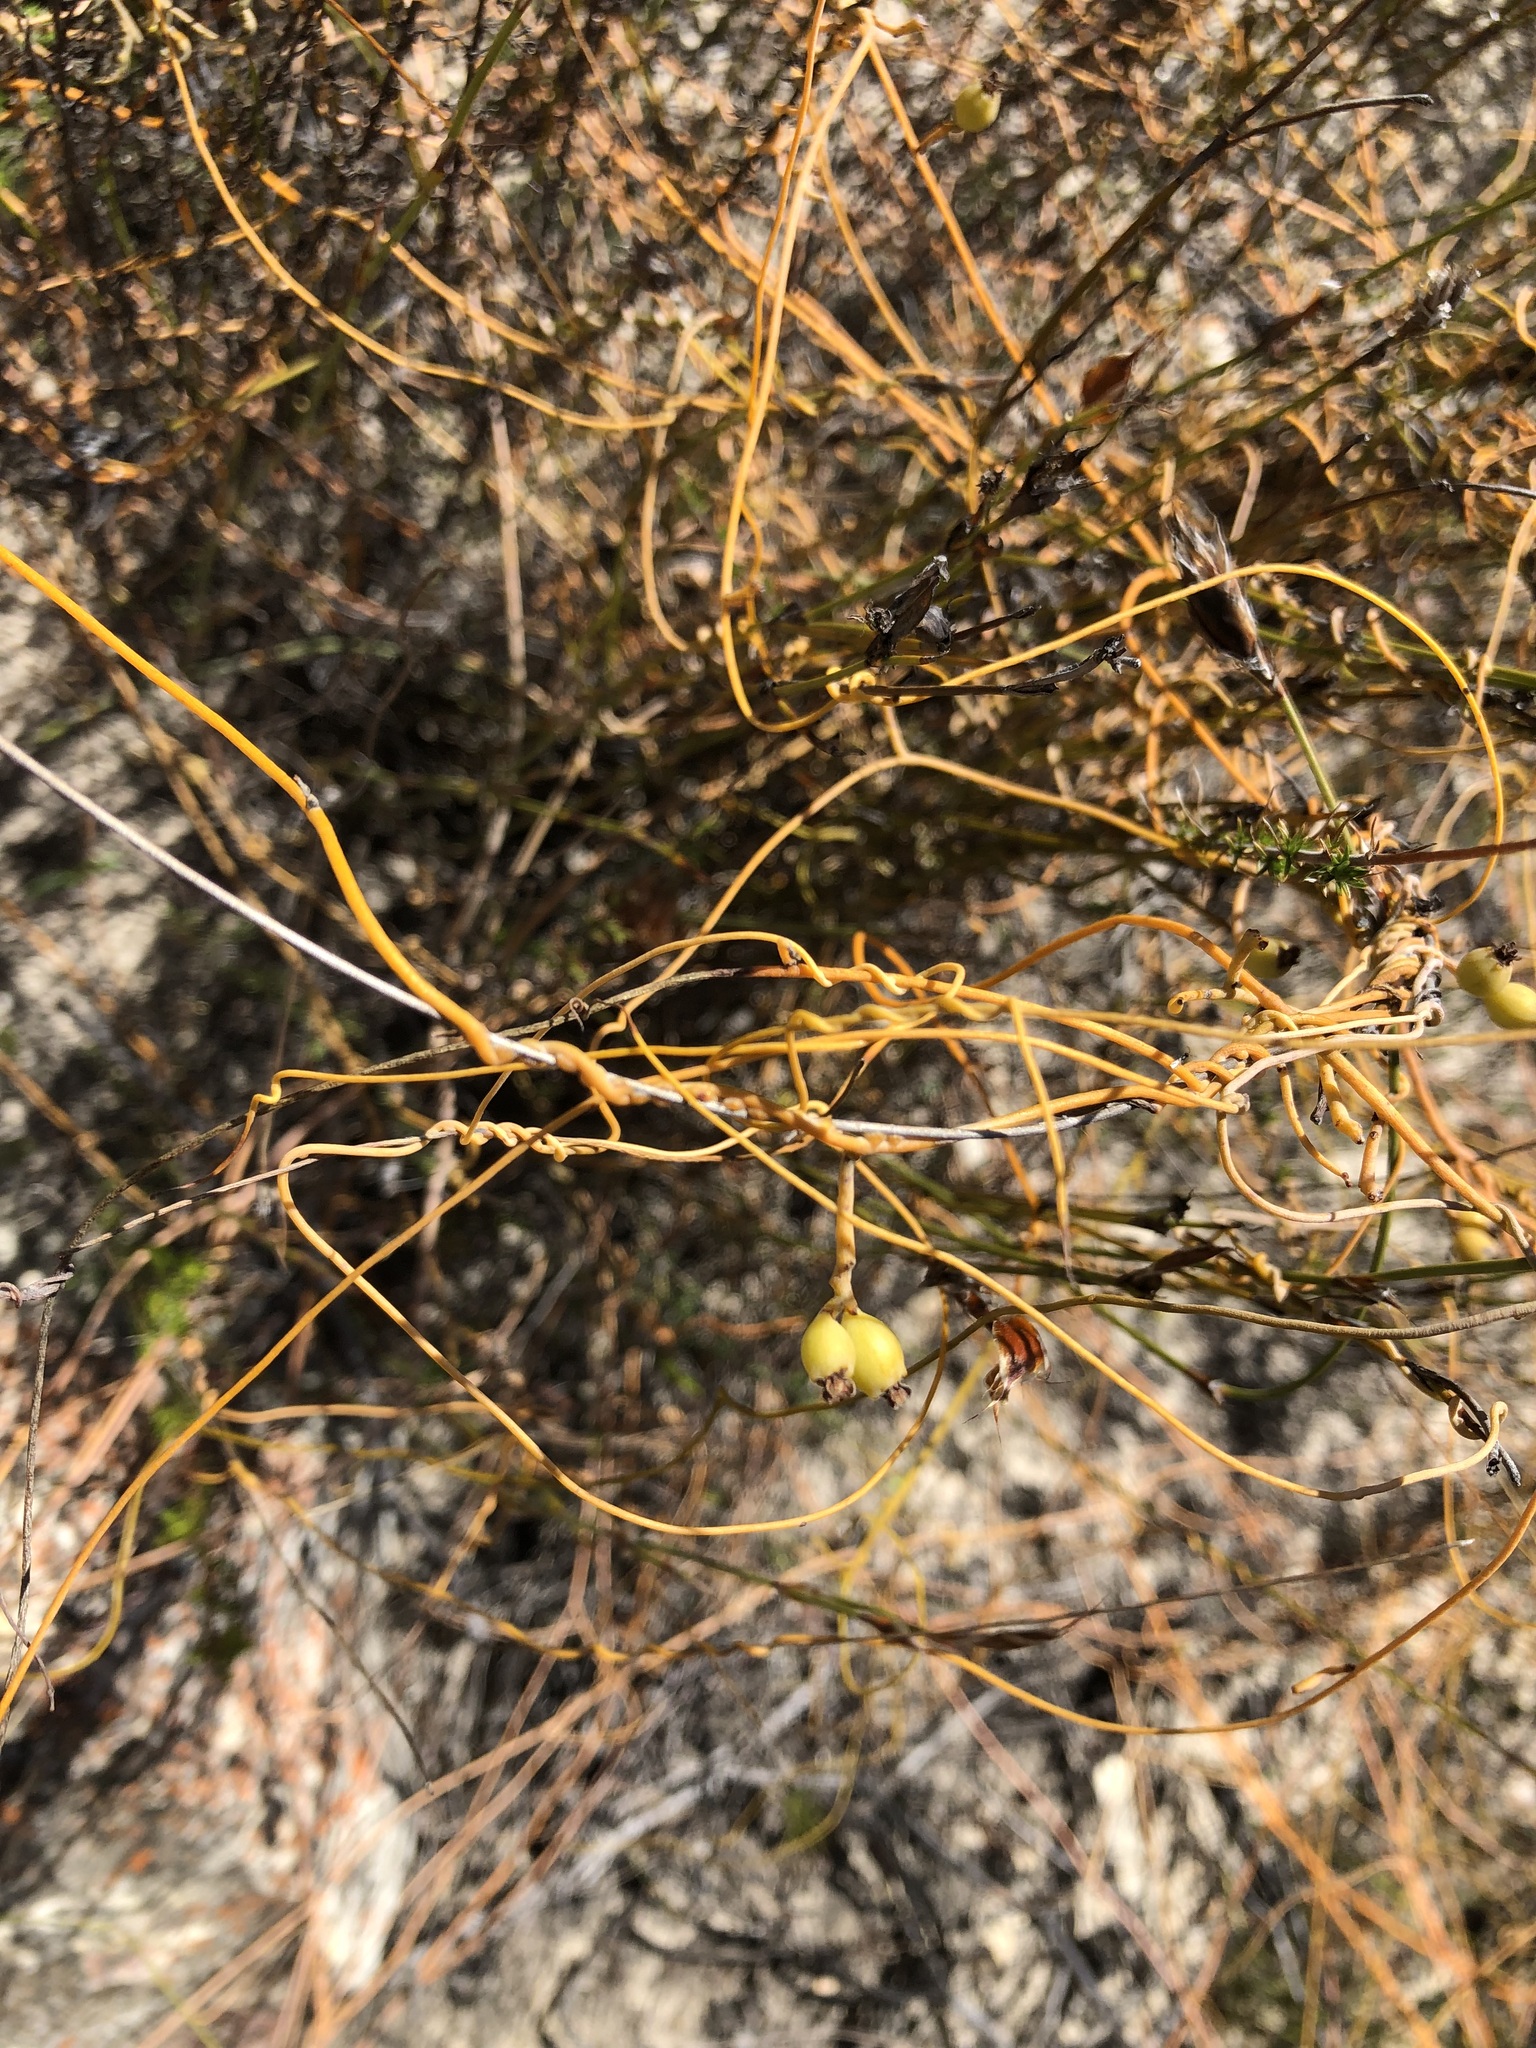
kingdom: Plantae
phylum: Tracheophyta
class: Magnoliopsida
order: Laurales
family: Lauraceae
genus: Cassytha
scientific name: Cassytha ciliolata
